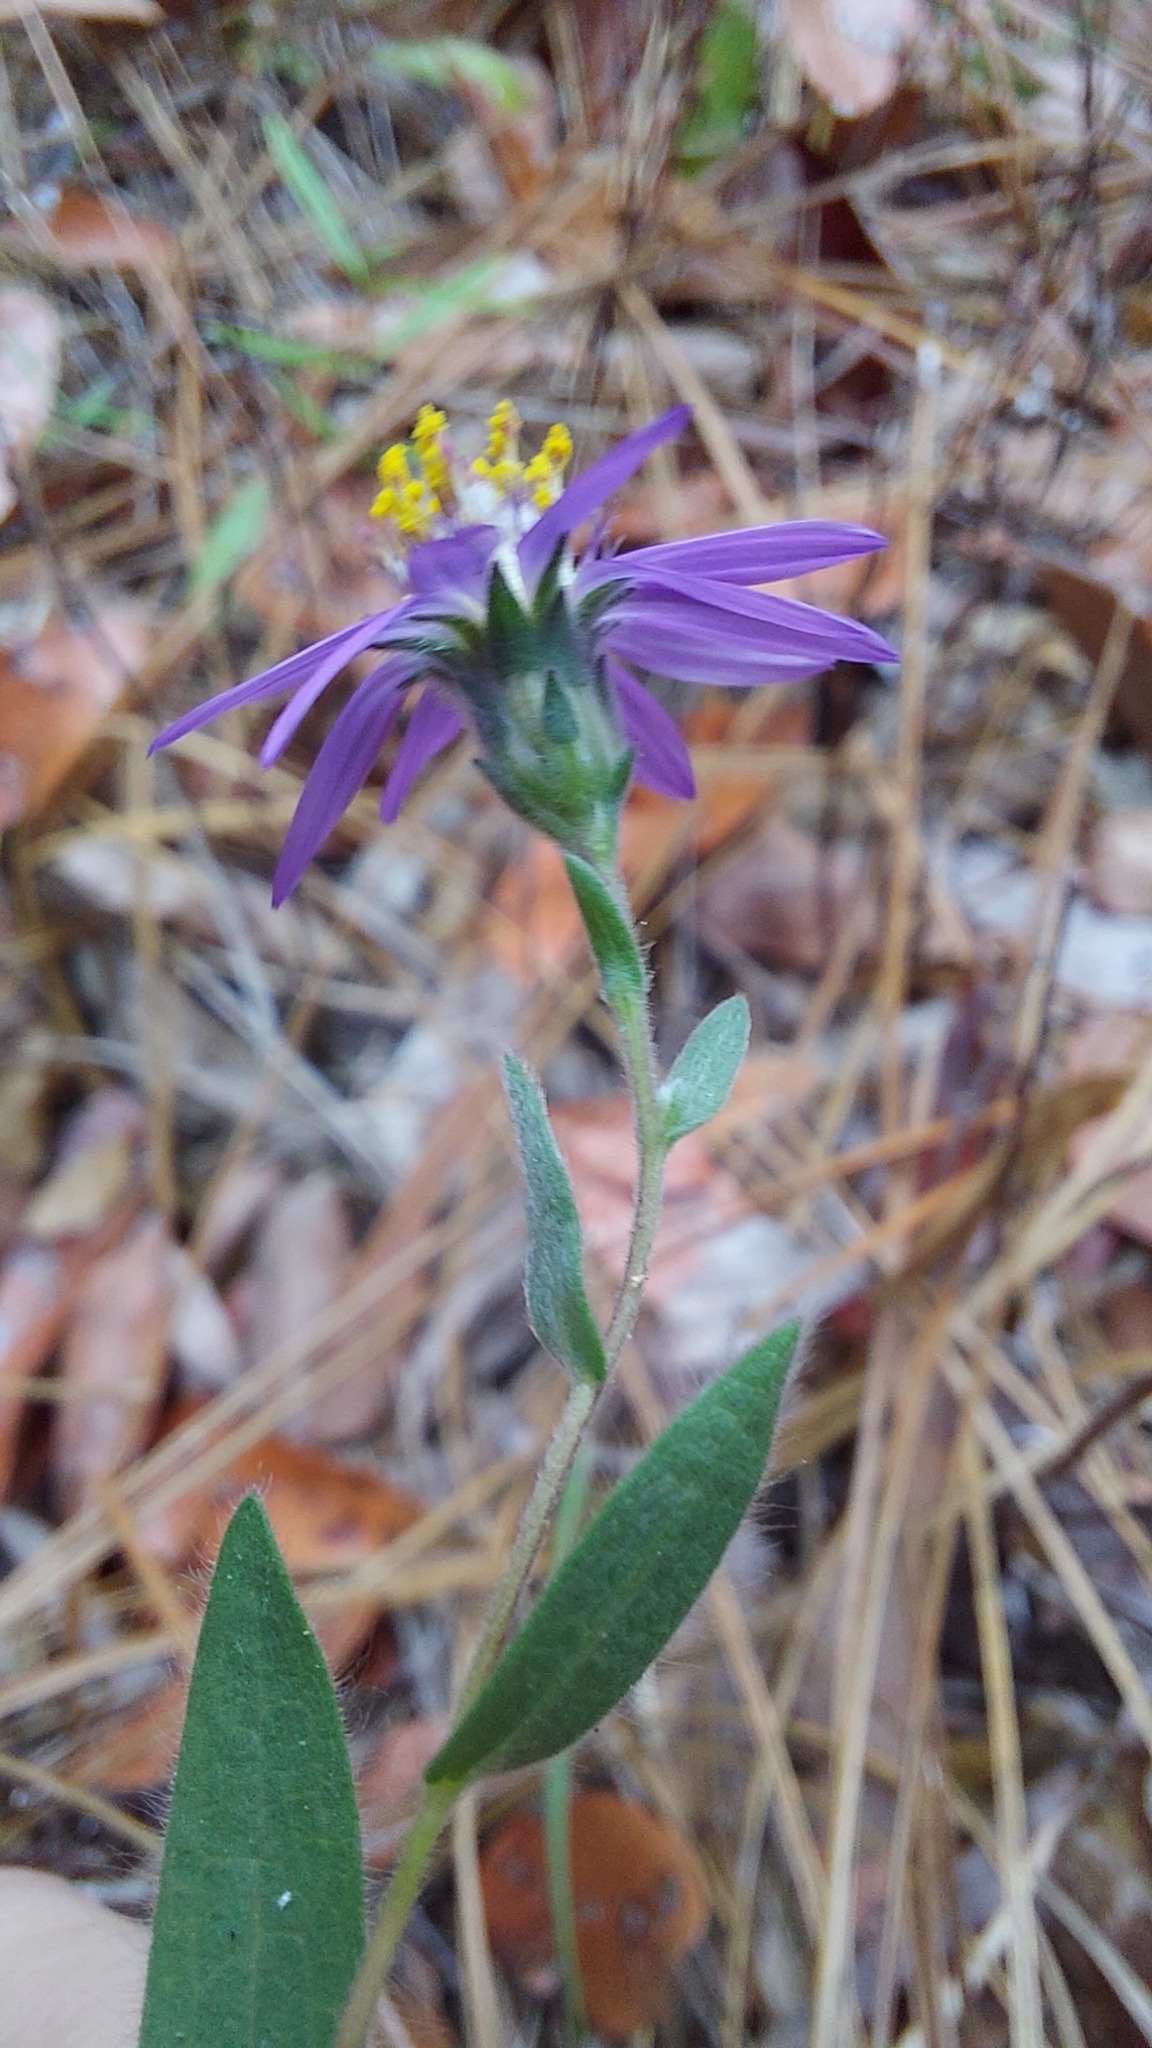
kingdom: Plantae
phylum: Tracheophyta
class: Magnoliopsida
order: Asterales
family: Asteraceae
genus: Symphyotrichum
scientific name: Symphyotrichum concolor
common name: Eastern silver aster
